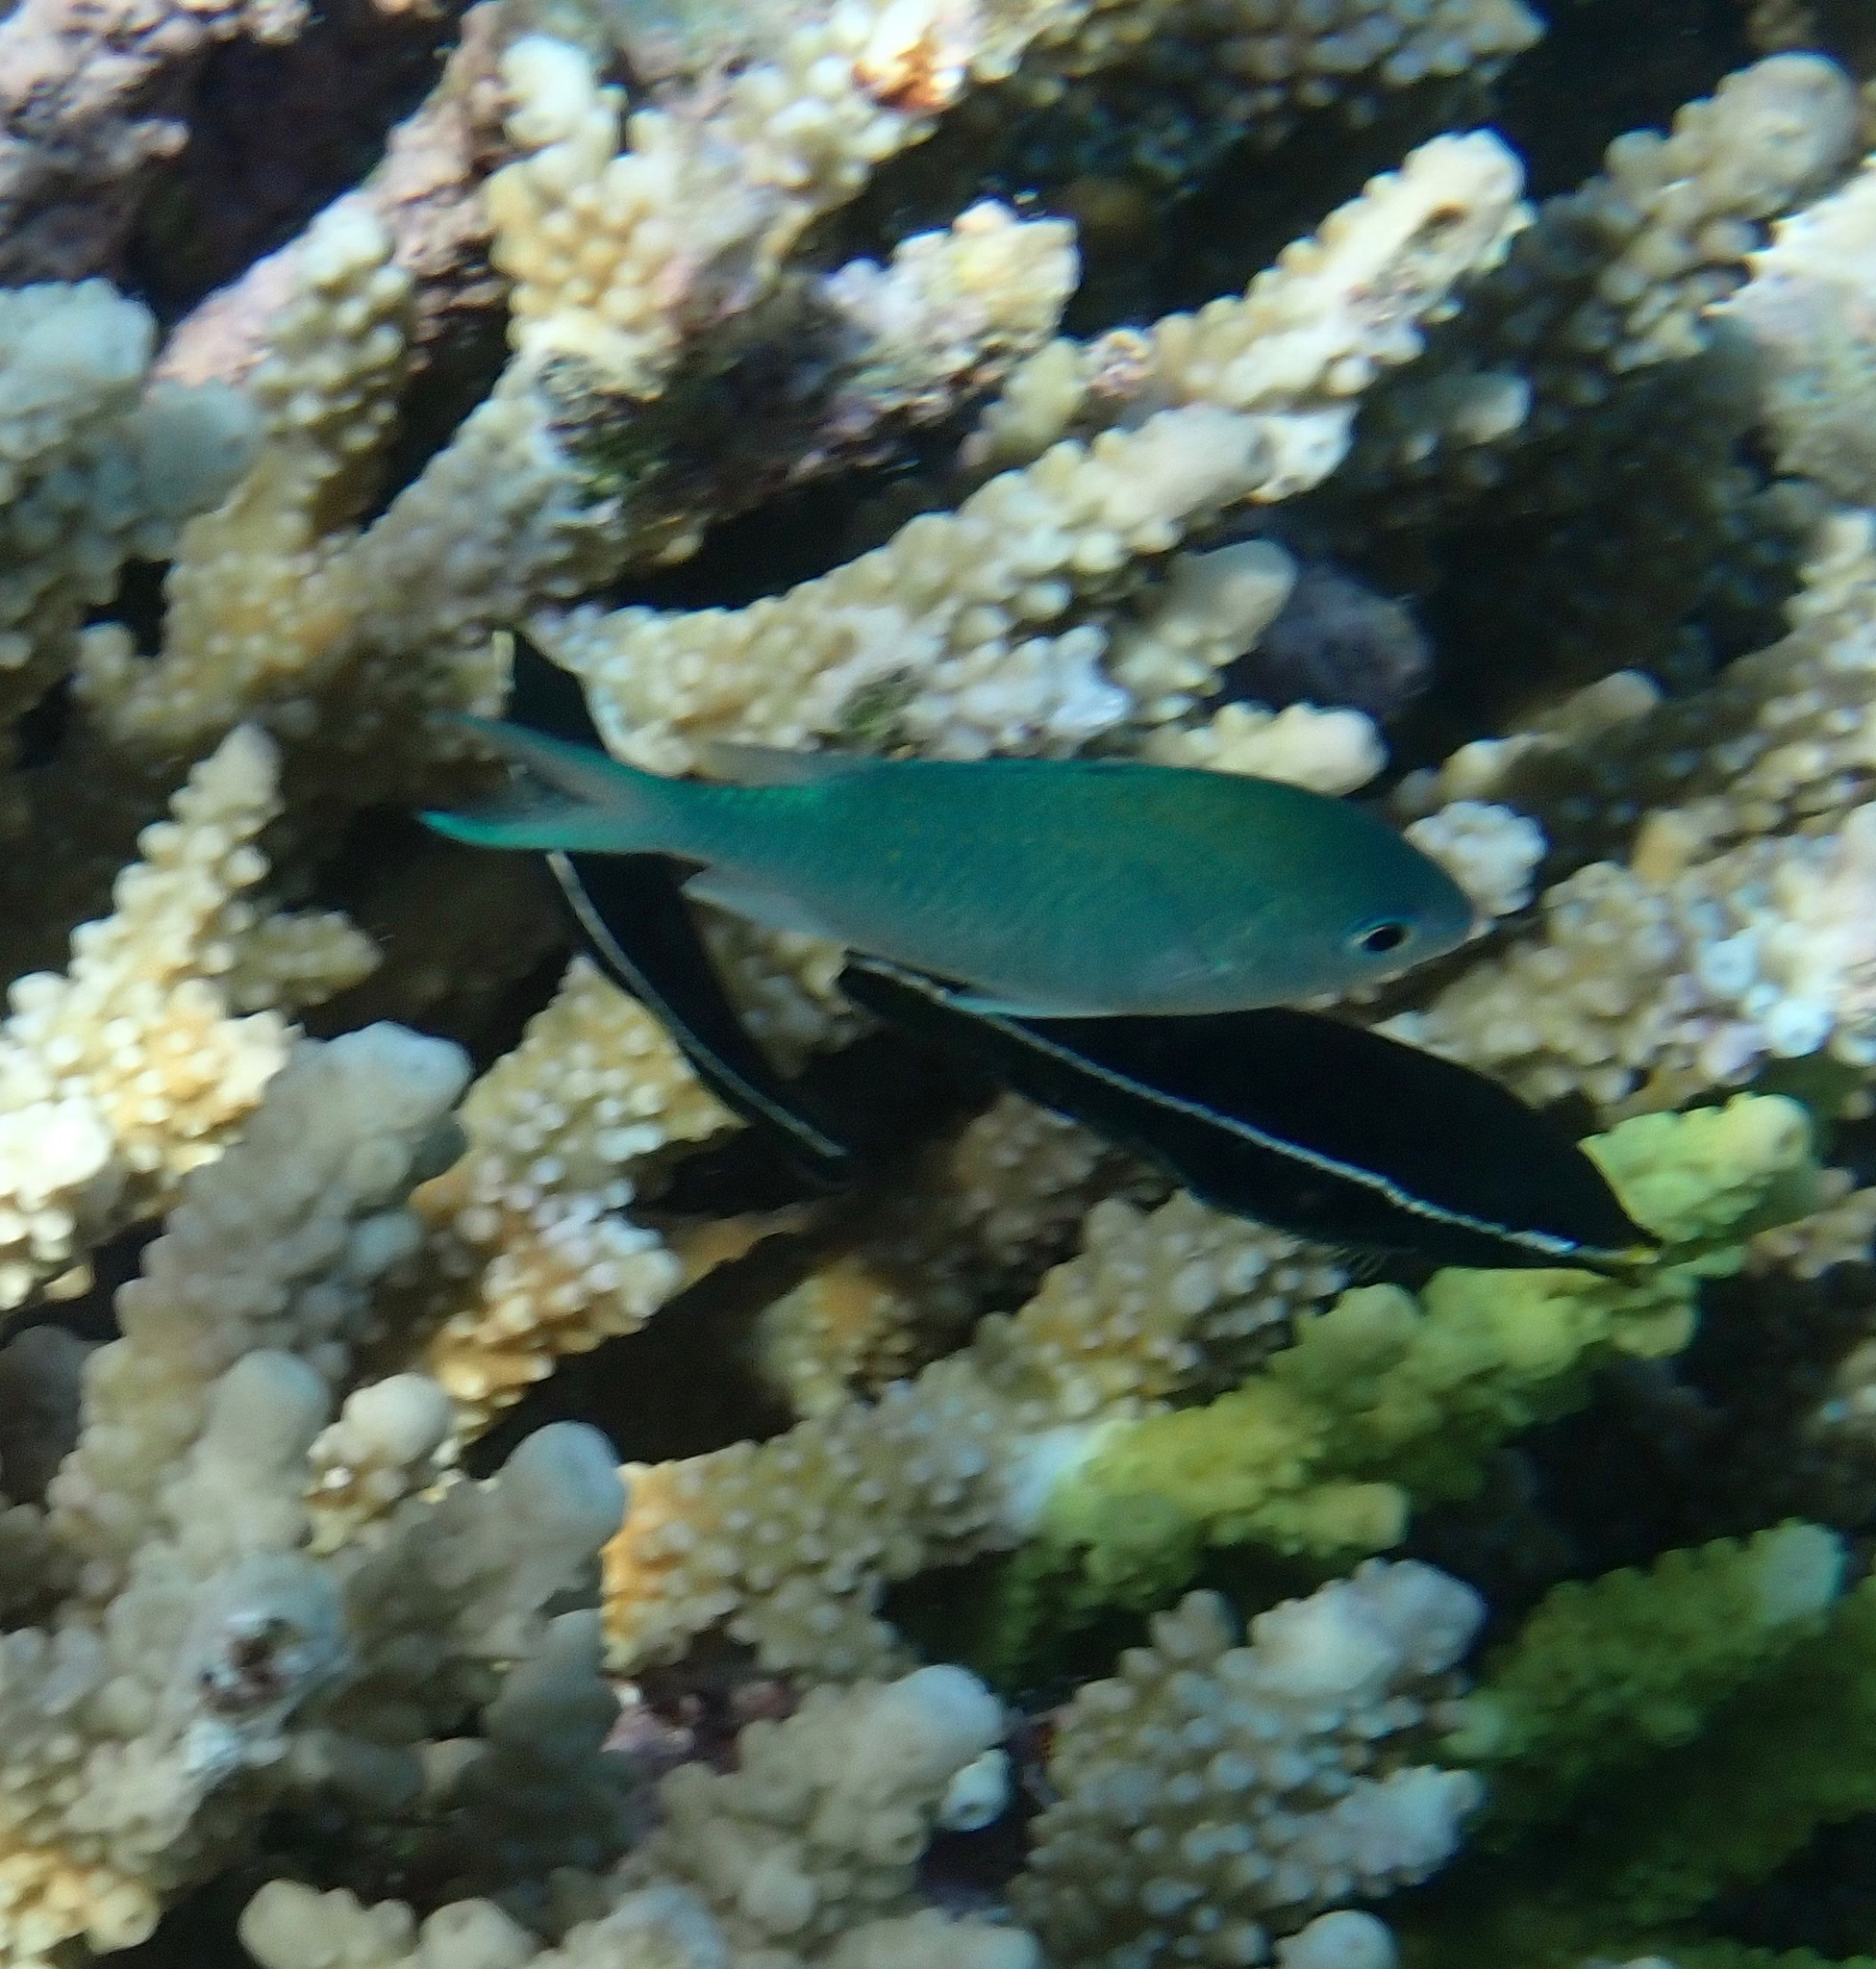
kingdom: Animalia
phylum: Chordata
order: Perciformes
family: Labridae
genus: Labrichthys
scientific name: Labrichthys unilineatus
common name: Onelined wrasse
